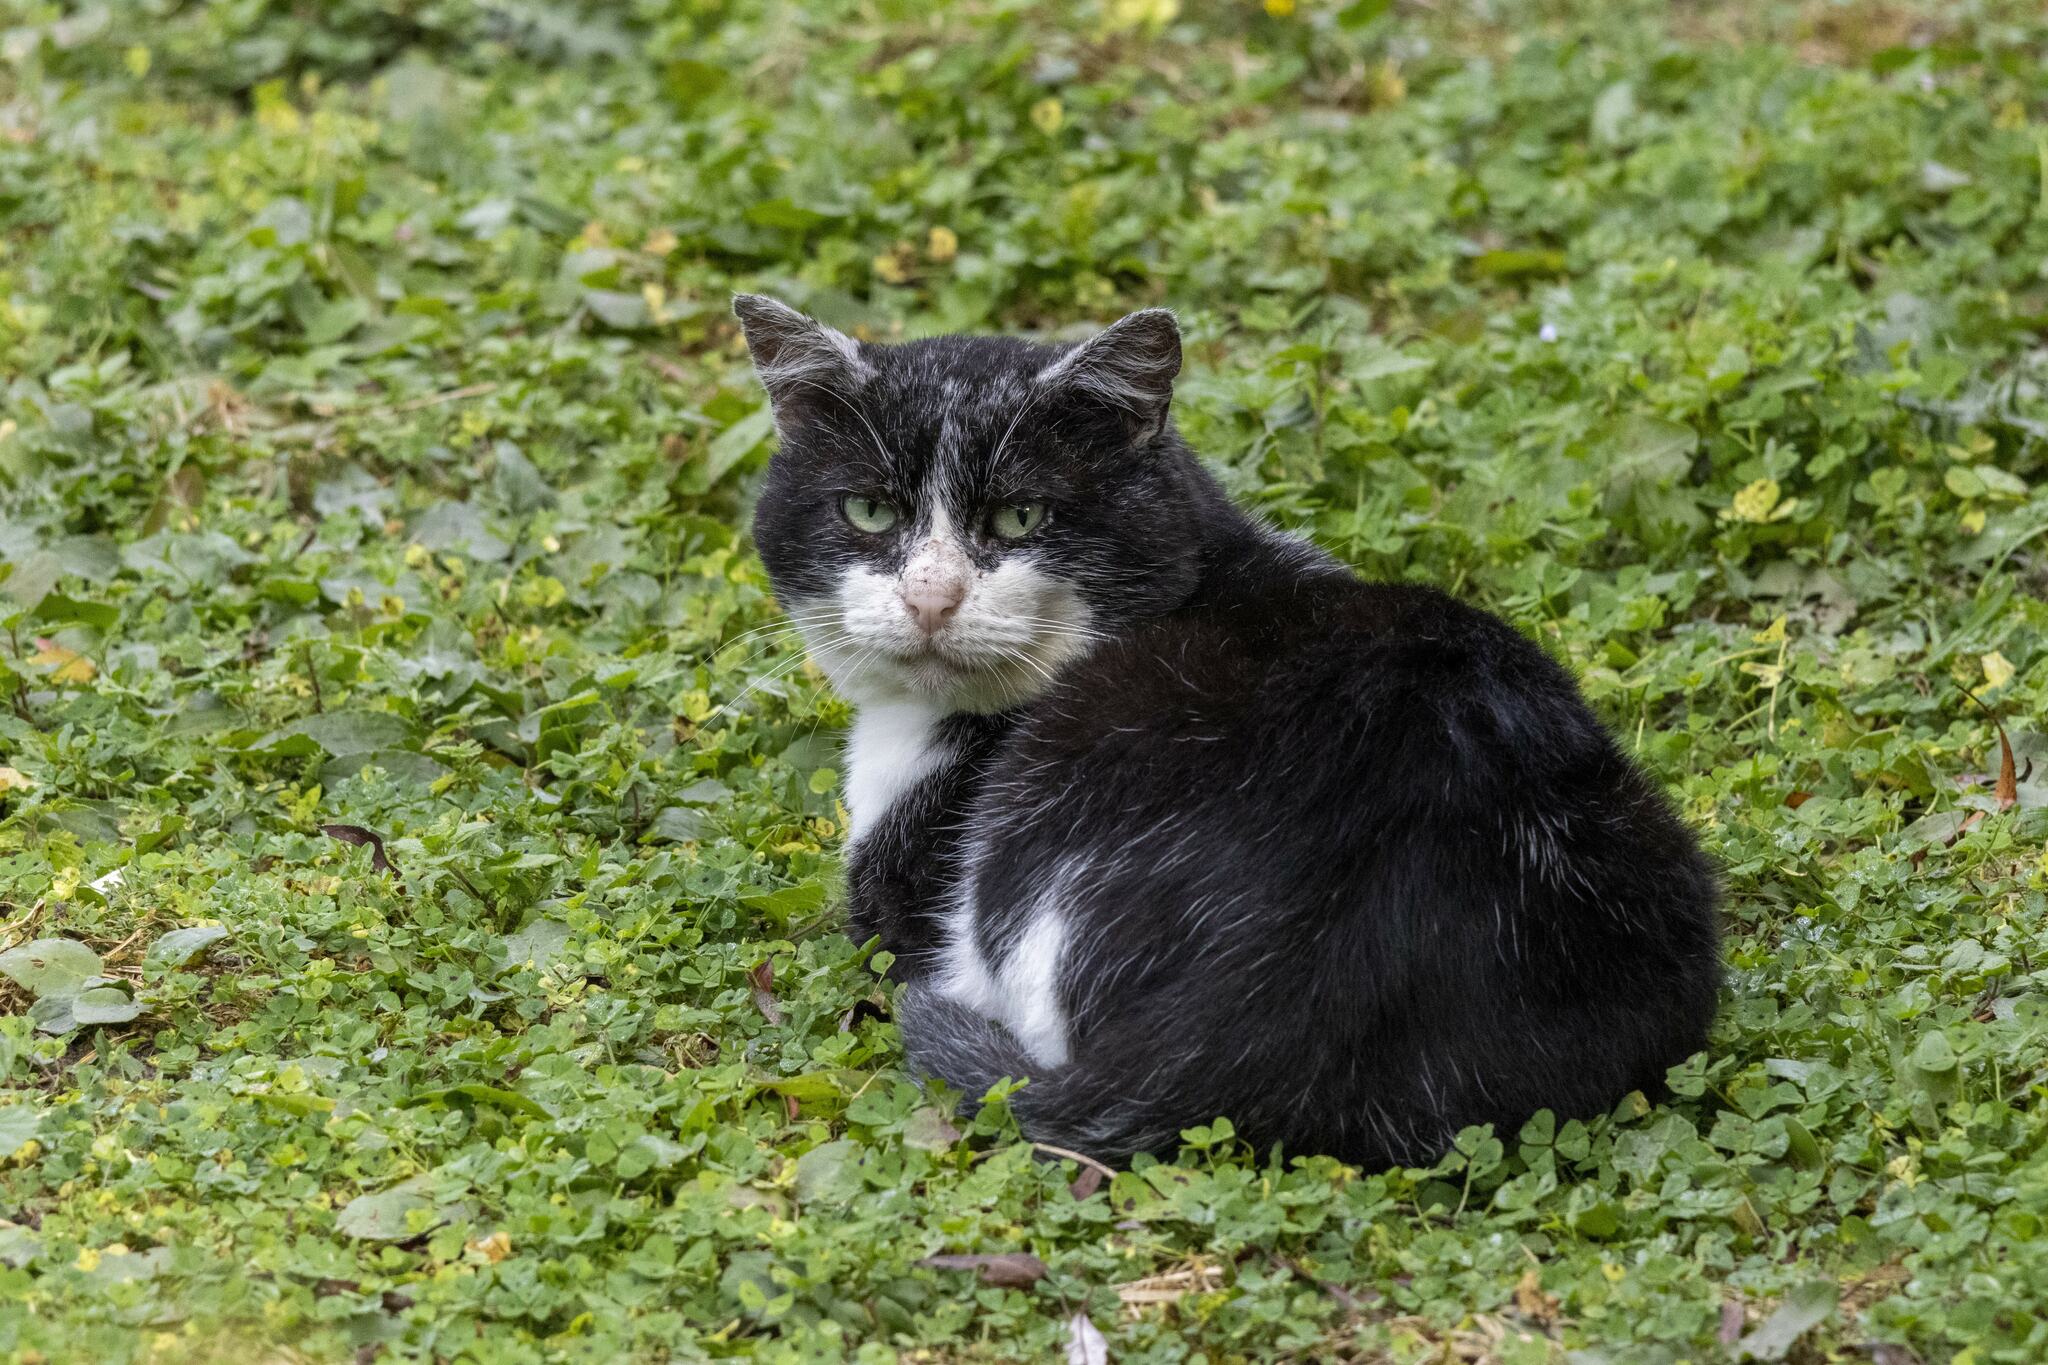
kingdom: Animalia
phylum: Chordata
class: Mammalia
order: Carnivora
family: Felidae
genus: Felis
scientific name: Felis catus
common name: Domestic cat
